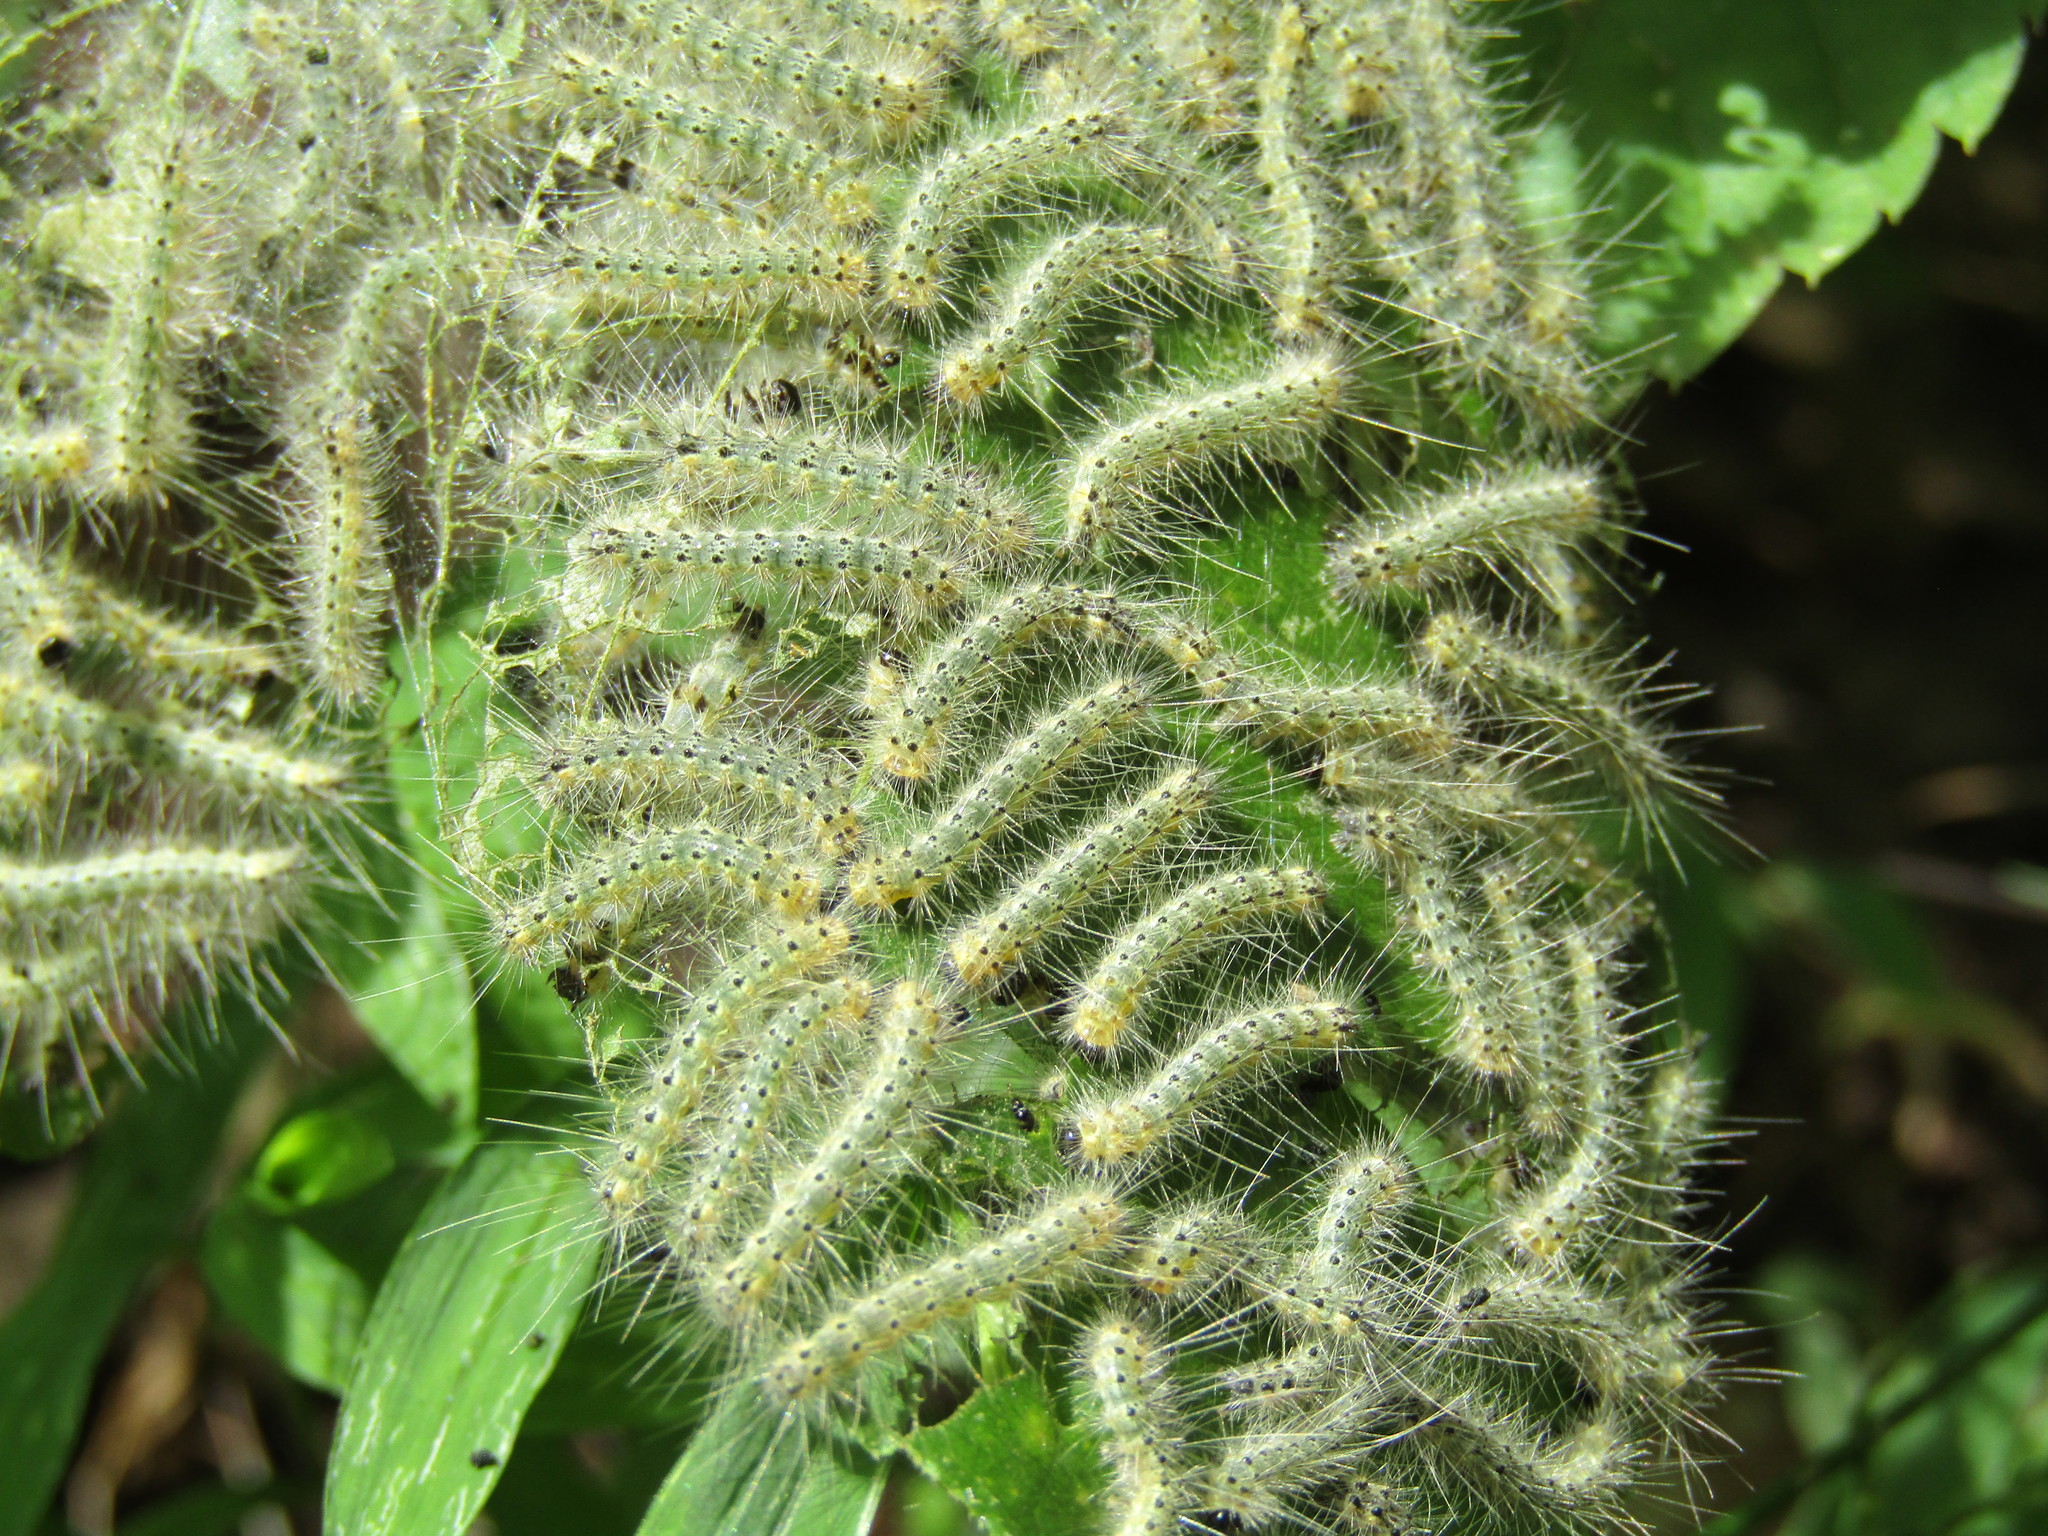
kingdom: Animalia
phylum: Arthropoda
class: Insecta
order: Lepidoptera
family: Erebidae
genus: Hyphantria
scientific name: Hyphantria cunea
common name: American white moth
